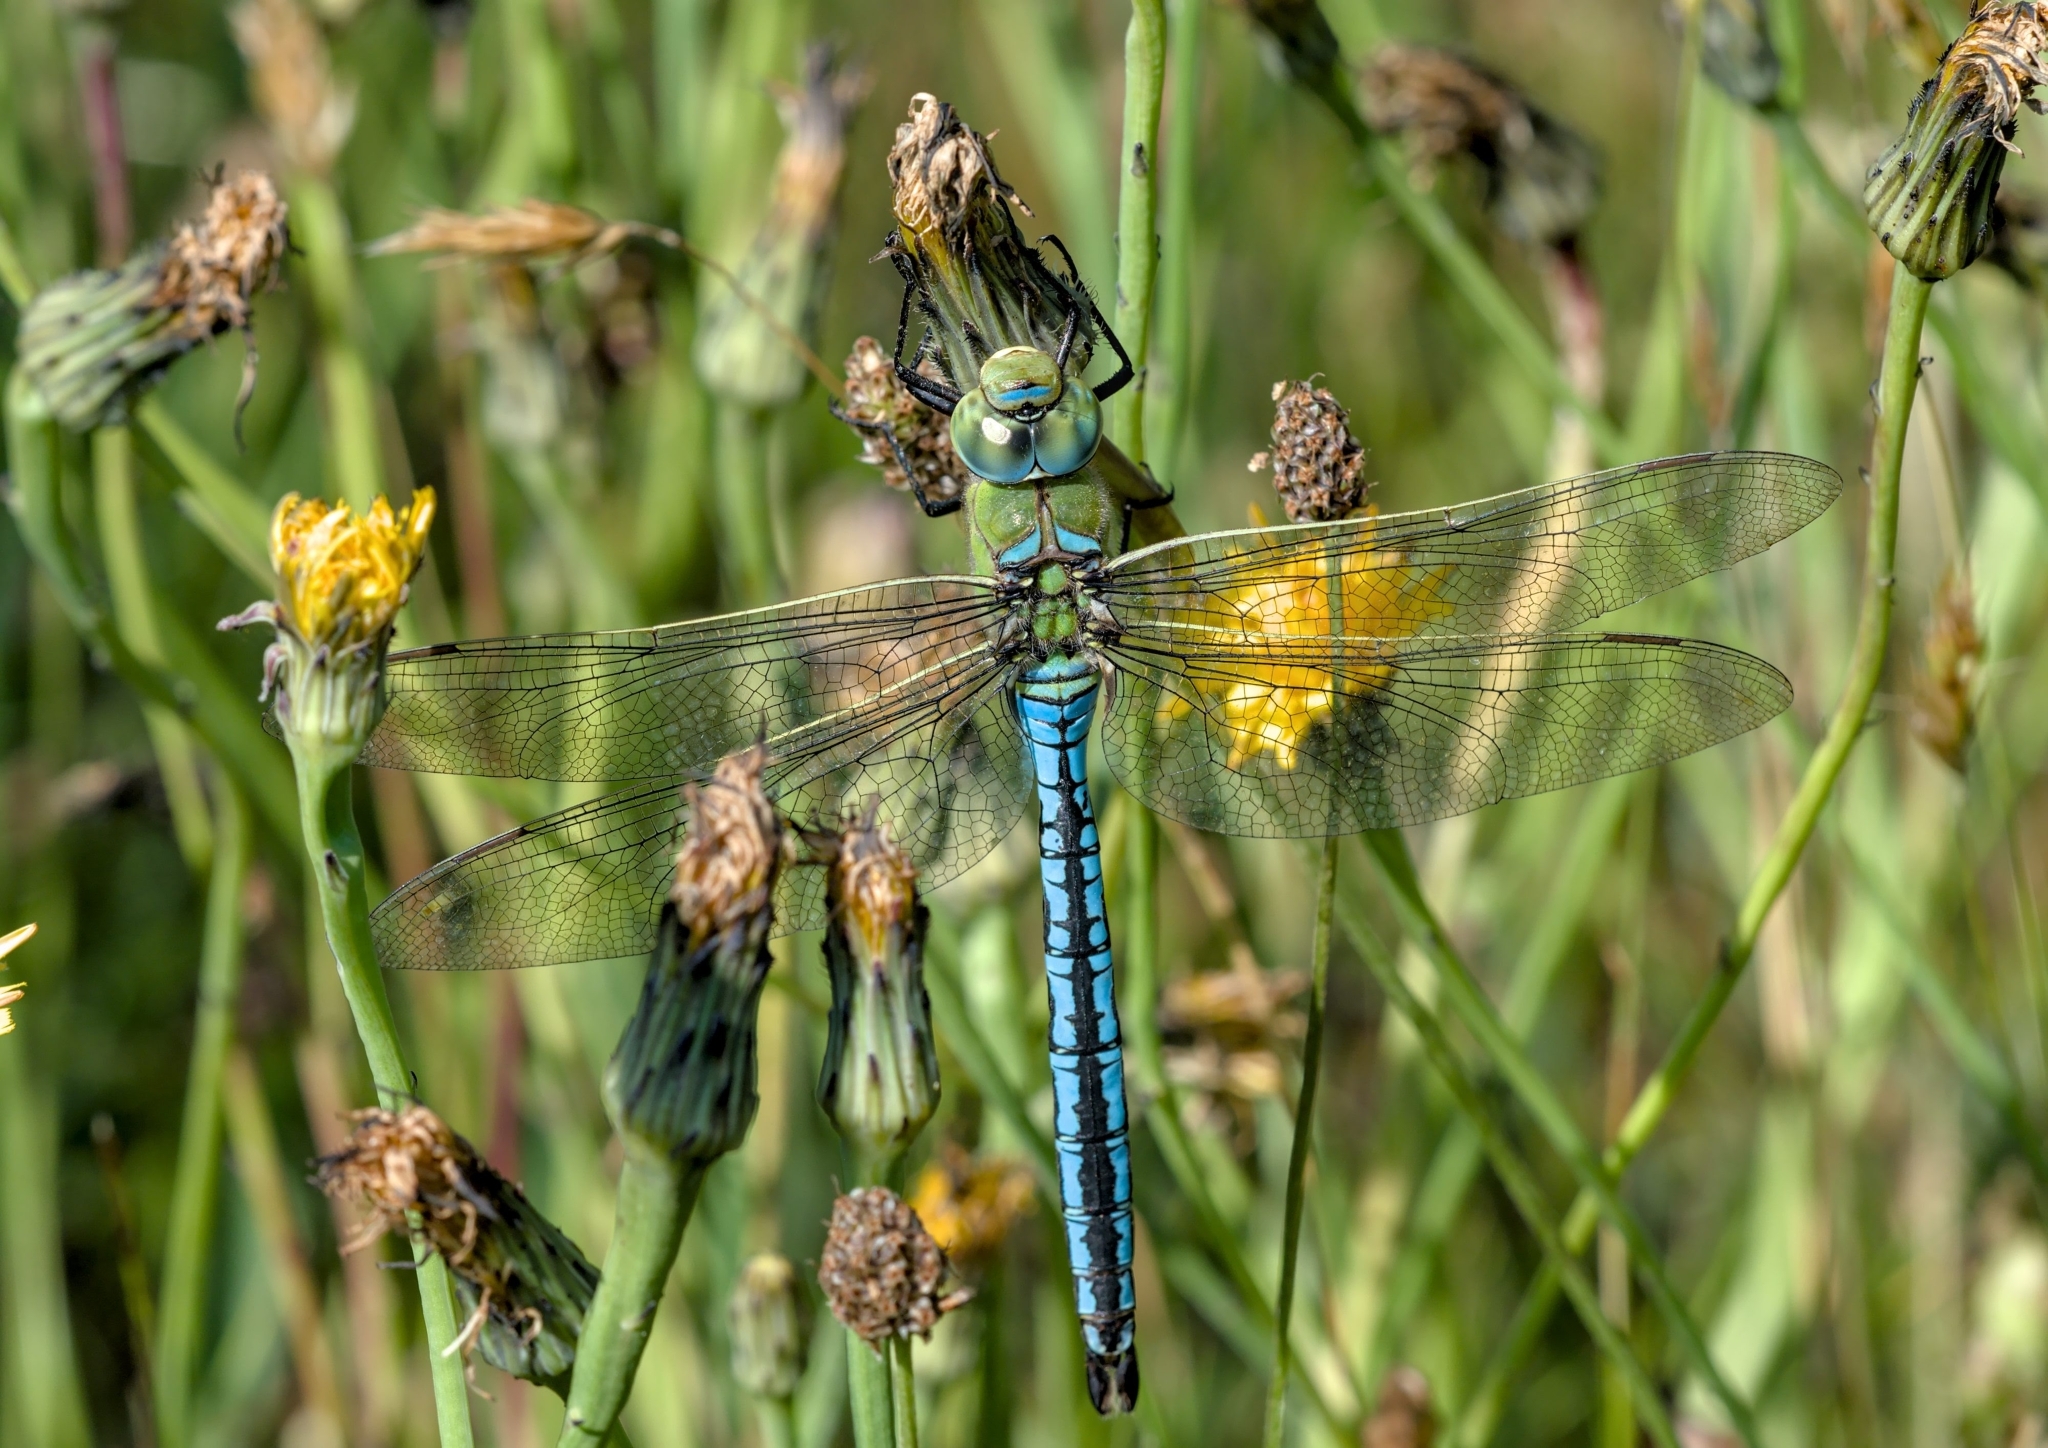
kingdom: Animalia
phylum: Arthropoda
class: Insecta
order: Odonata
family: Aeshnidae
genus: Anax
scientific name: Anax imperator
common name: Emperor dragonfly
